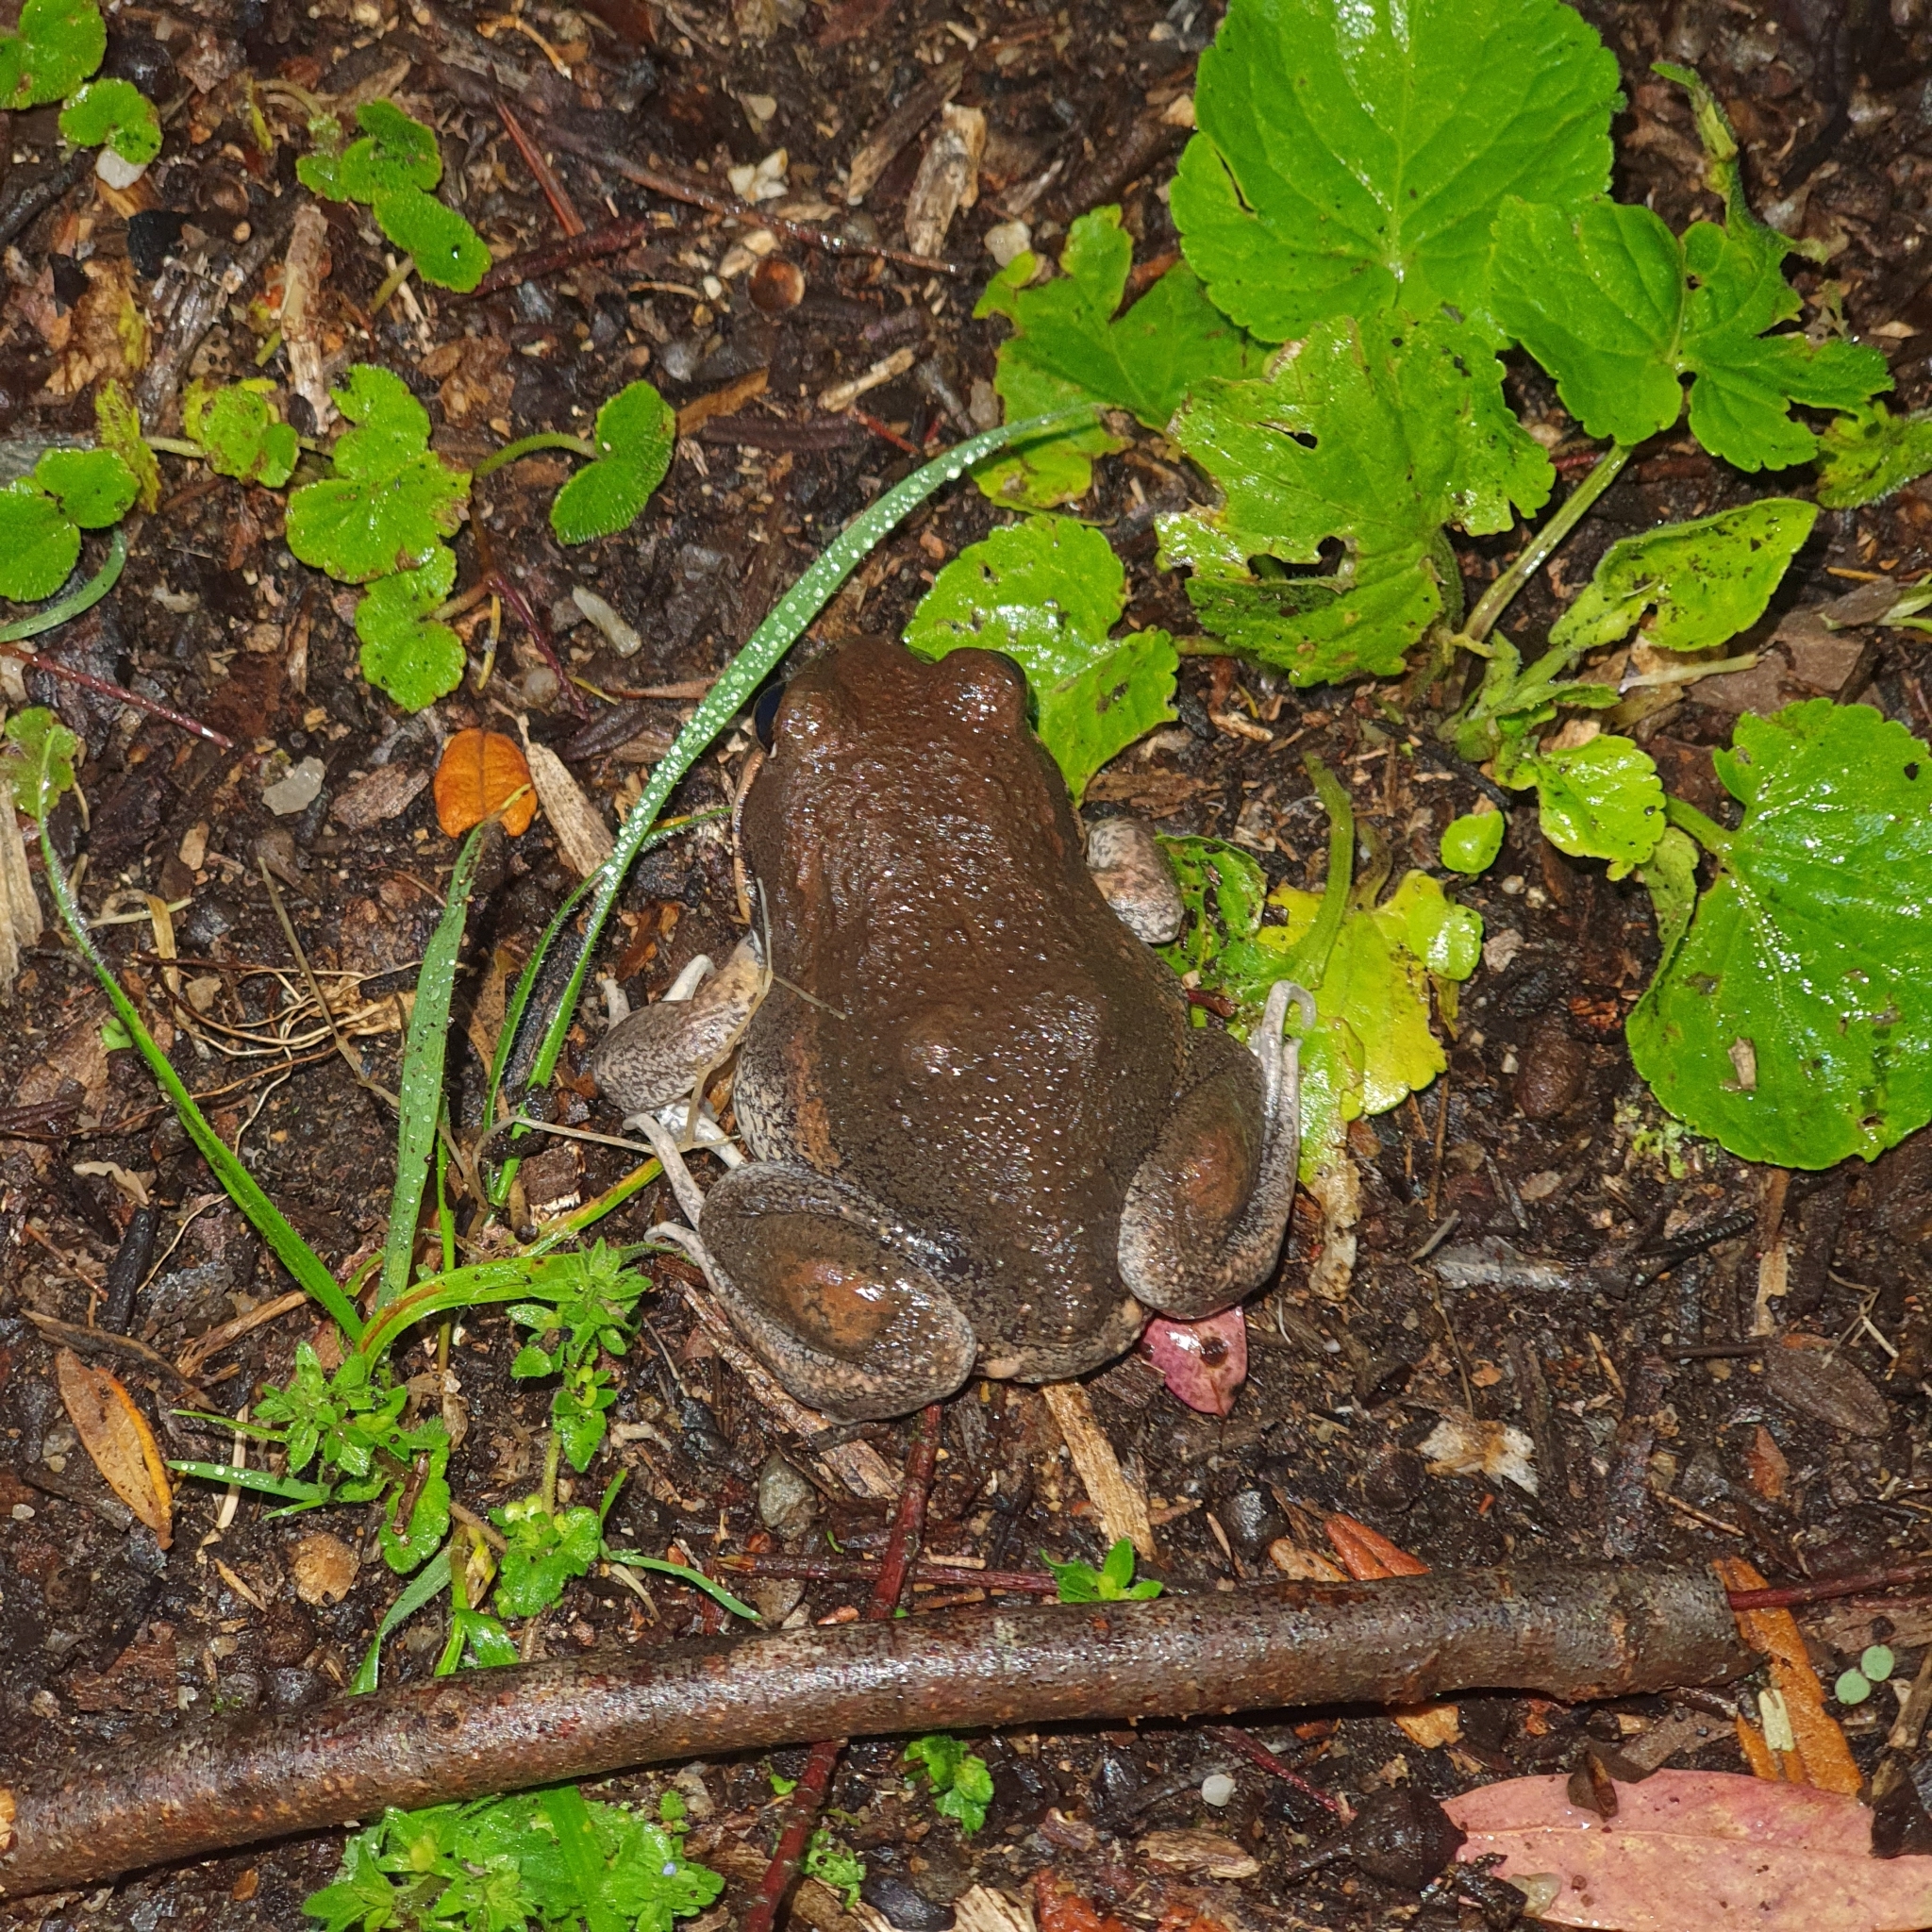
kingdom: Animalia
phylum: Chordata
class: Amphibia
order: Anura
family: Limnodynastidae
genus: Limnodynastes
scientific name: Limnodynastes dumerilii
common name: Banjo frog
